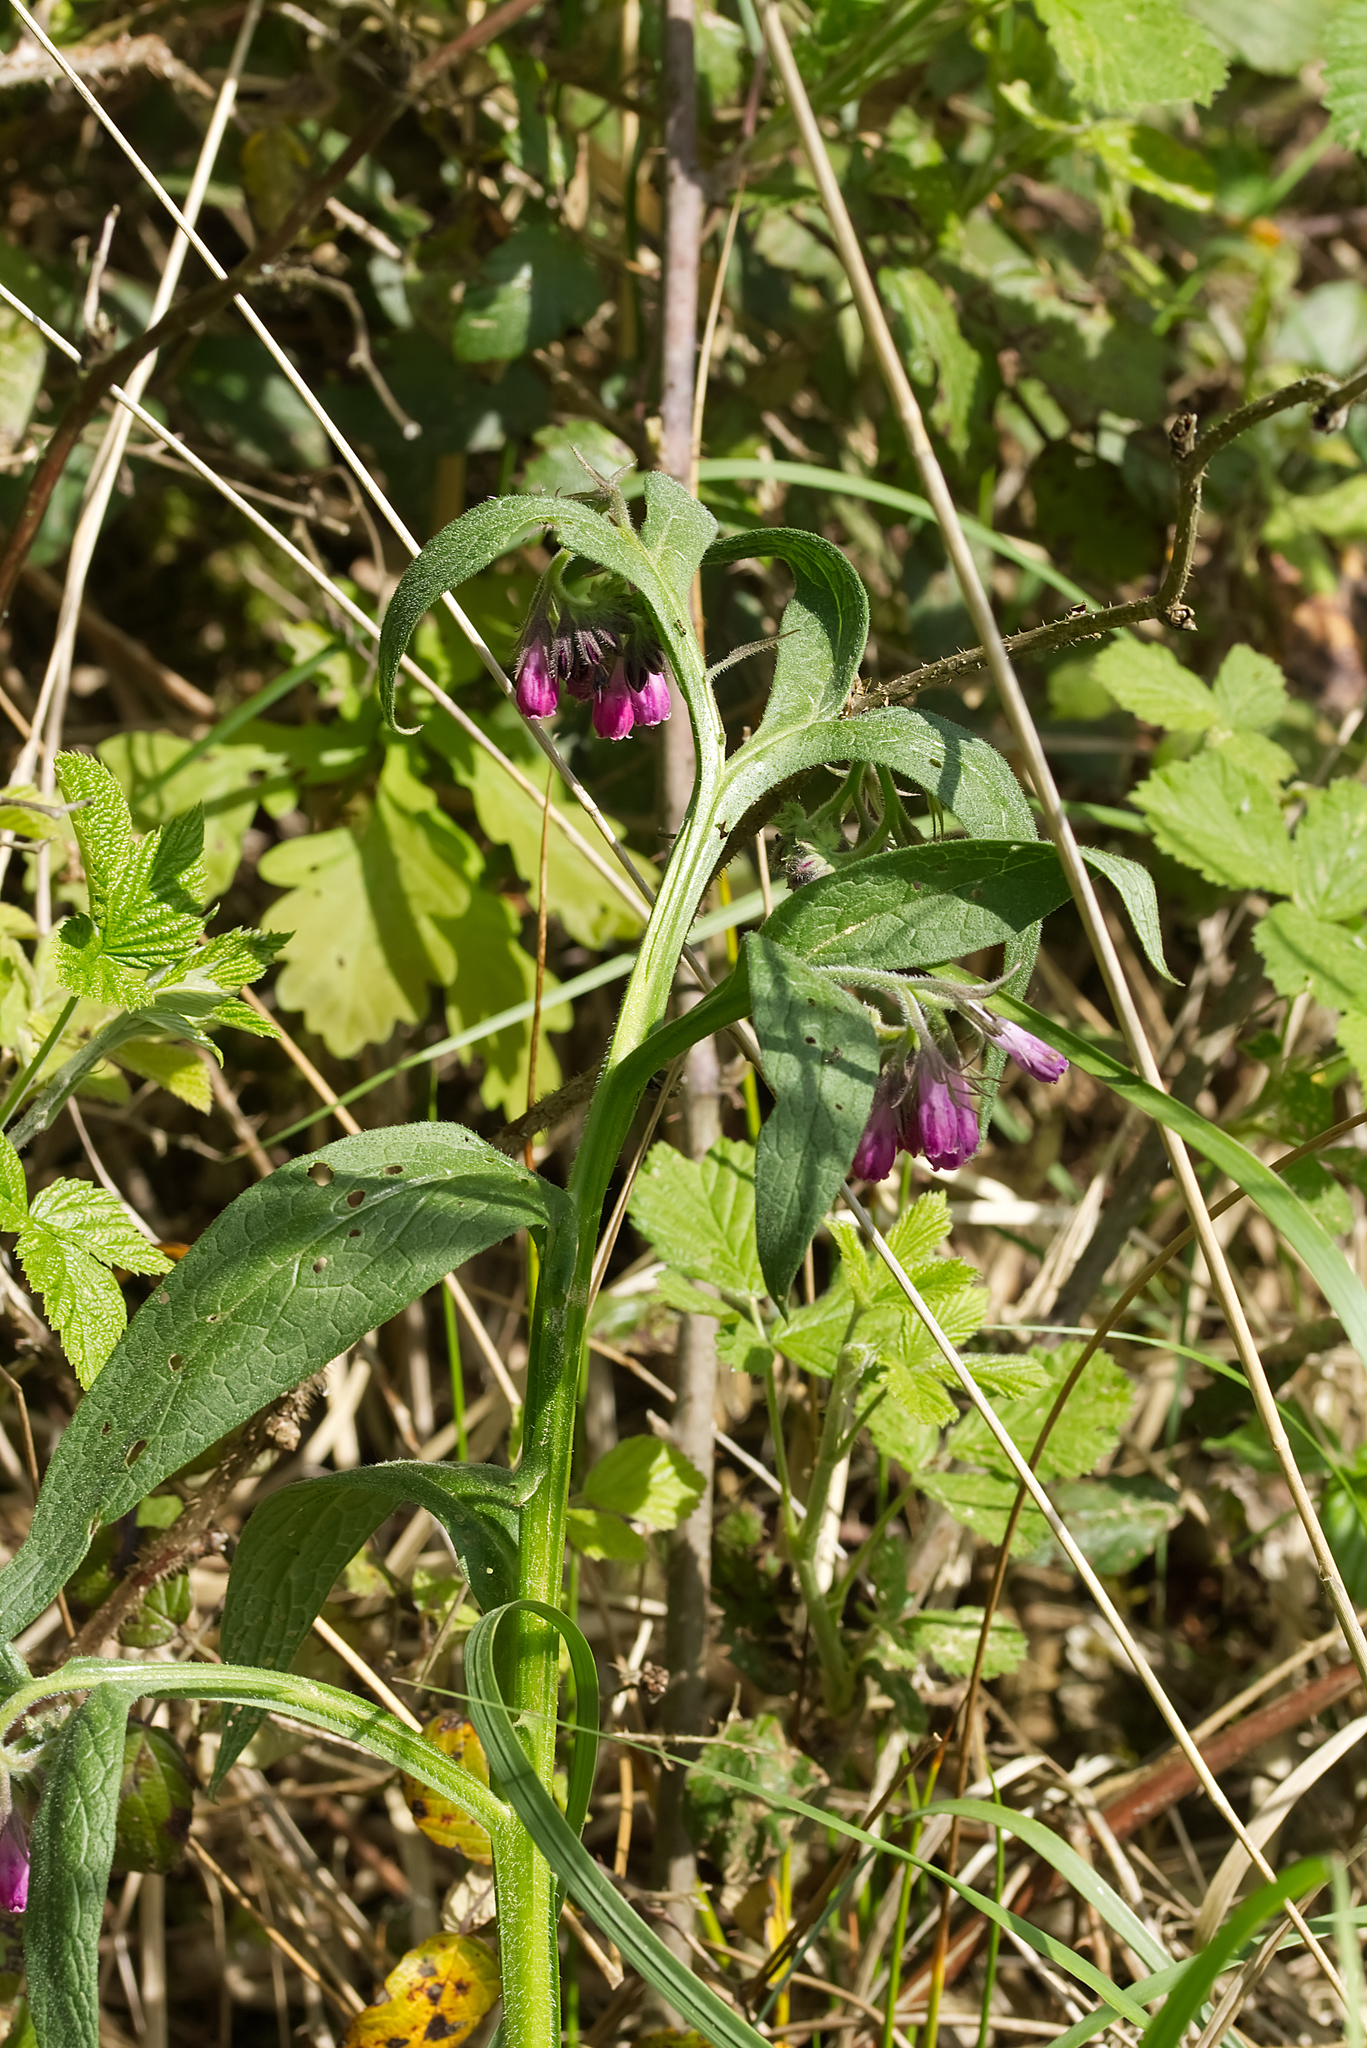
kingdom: Plantae
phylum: Tracheophyta
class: Magnoliopsida
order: Boraginales
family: Boraginaceae
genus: Symphytum
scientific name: Symphytum officinale
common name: Common comfrey
